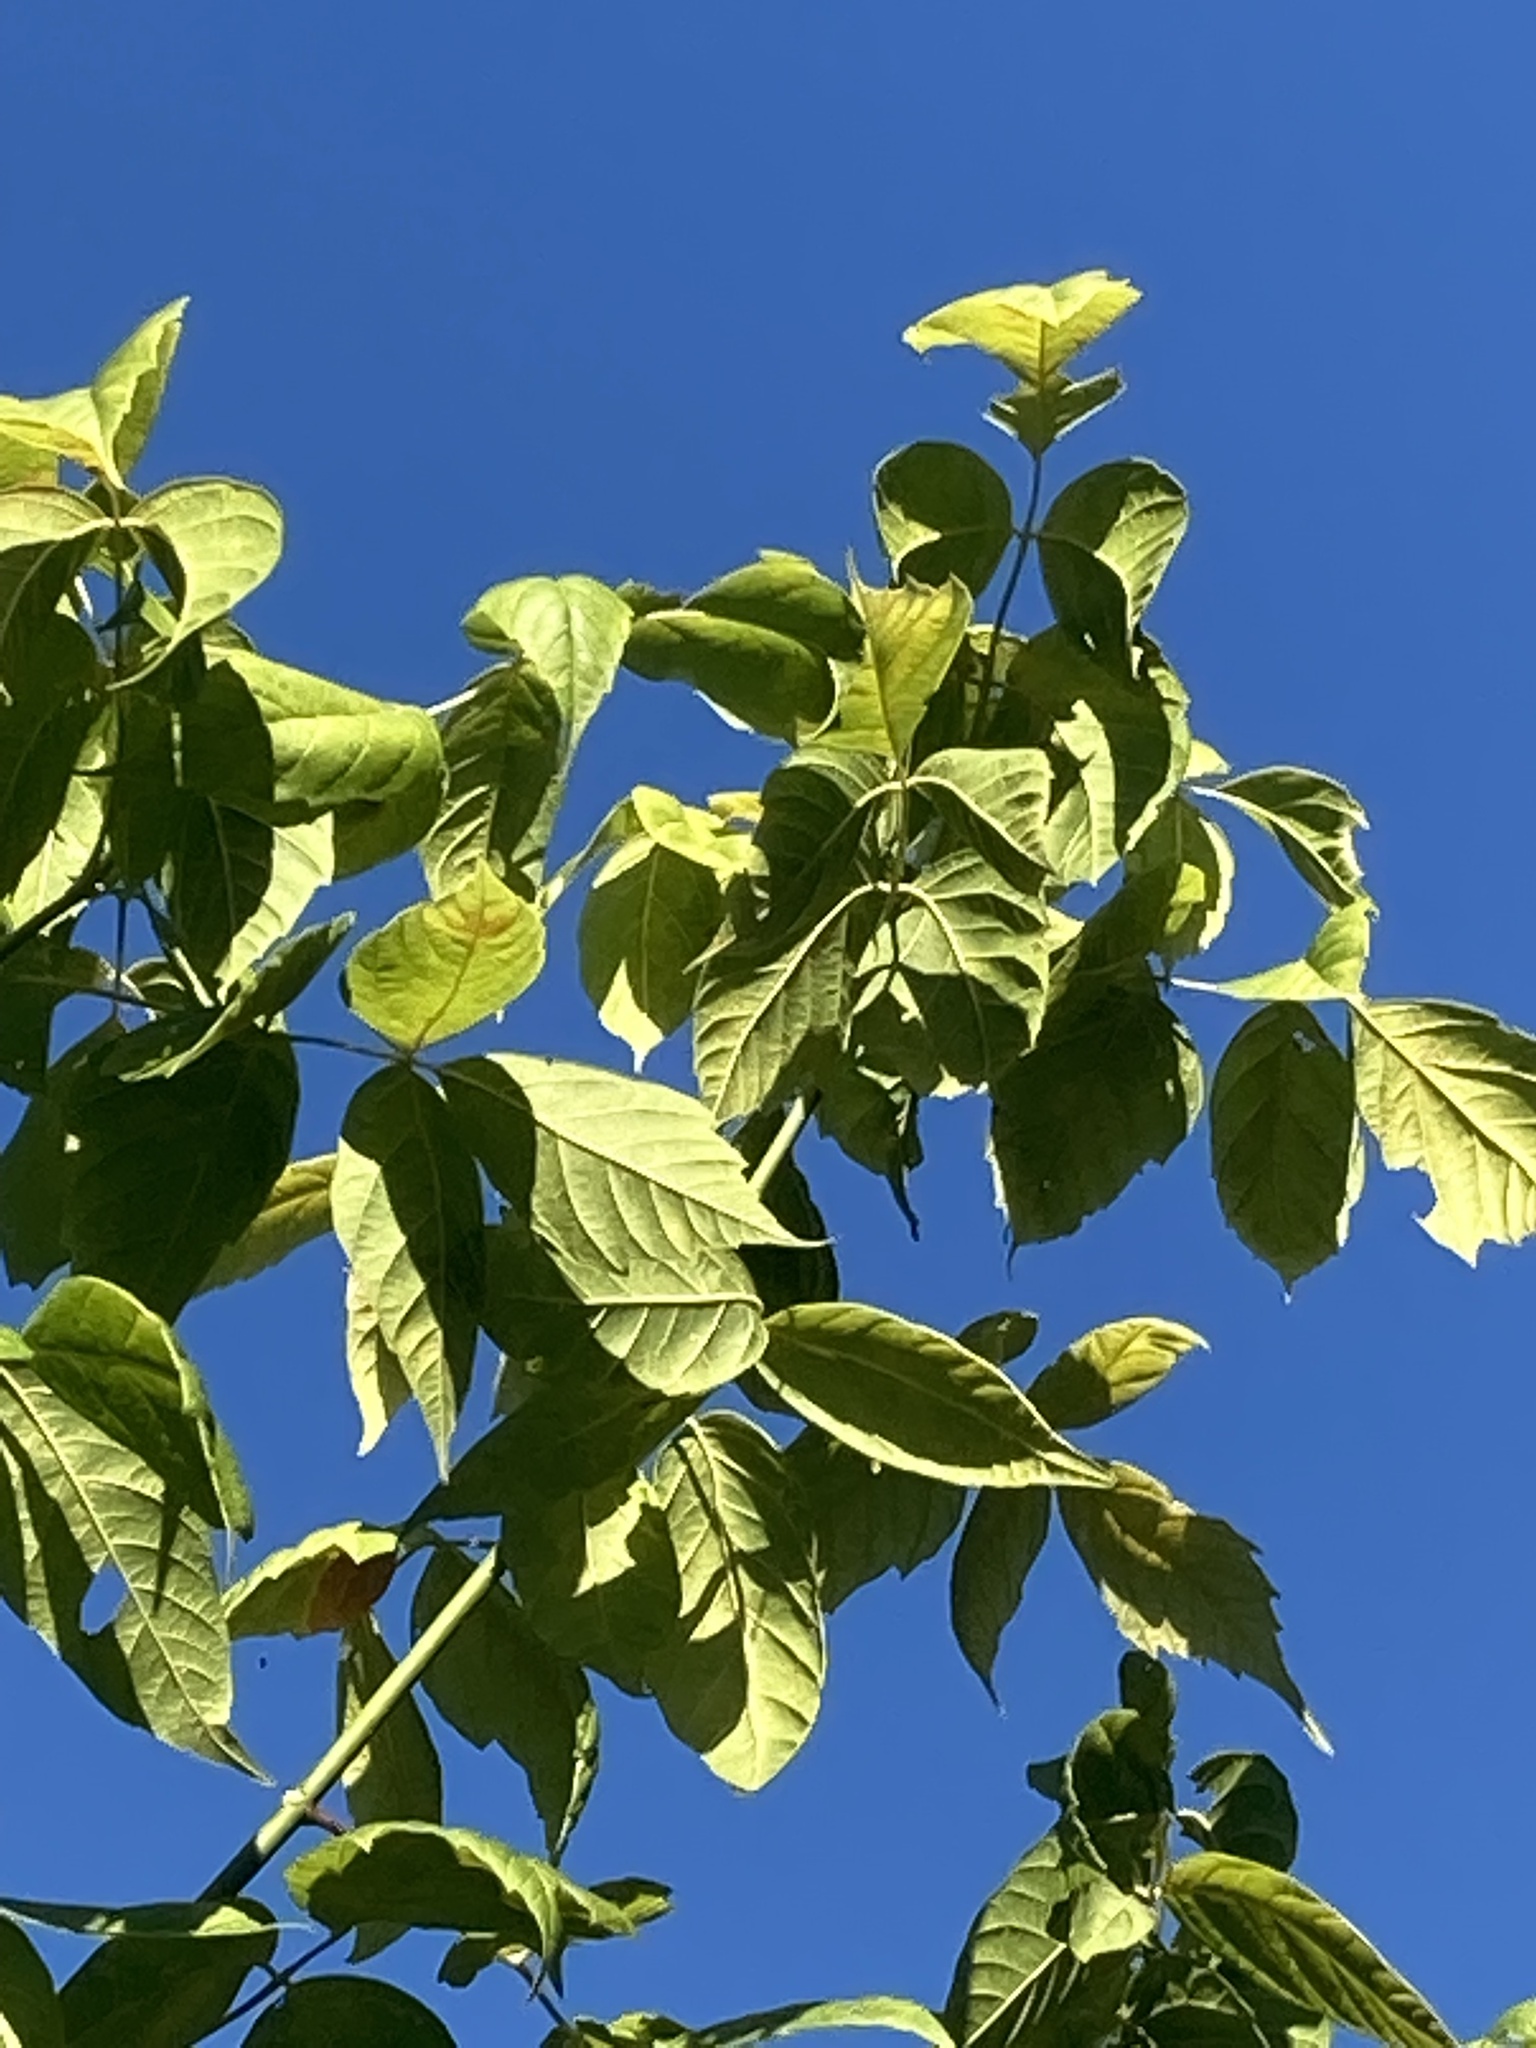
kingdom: Plantae
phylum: Tracheophyta
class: Magnoliopsida
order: Sapindales
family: Sapindaceae
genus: Acer
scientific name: Acer negundo
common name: Ashleaf maple
